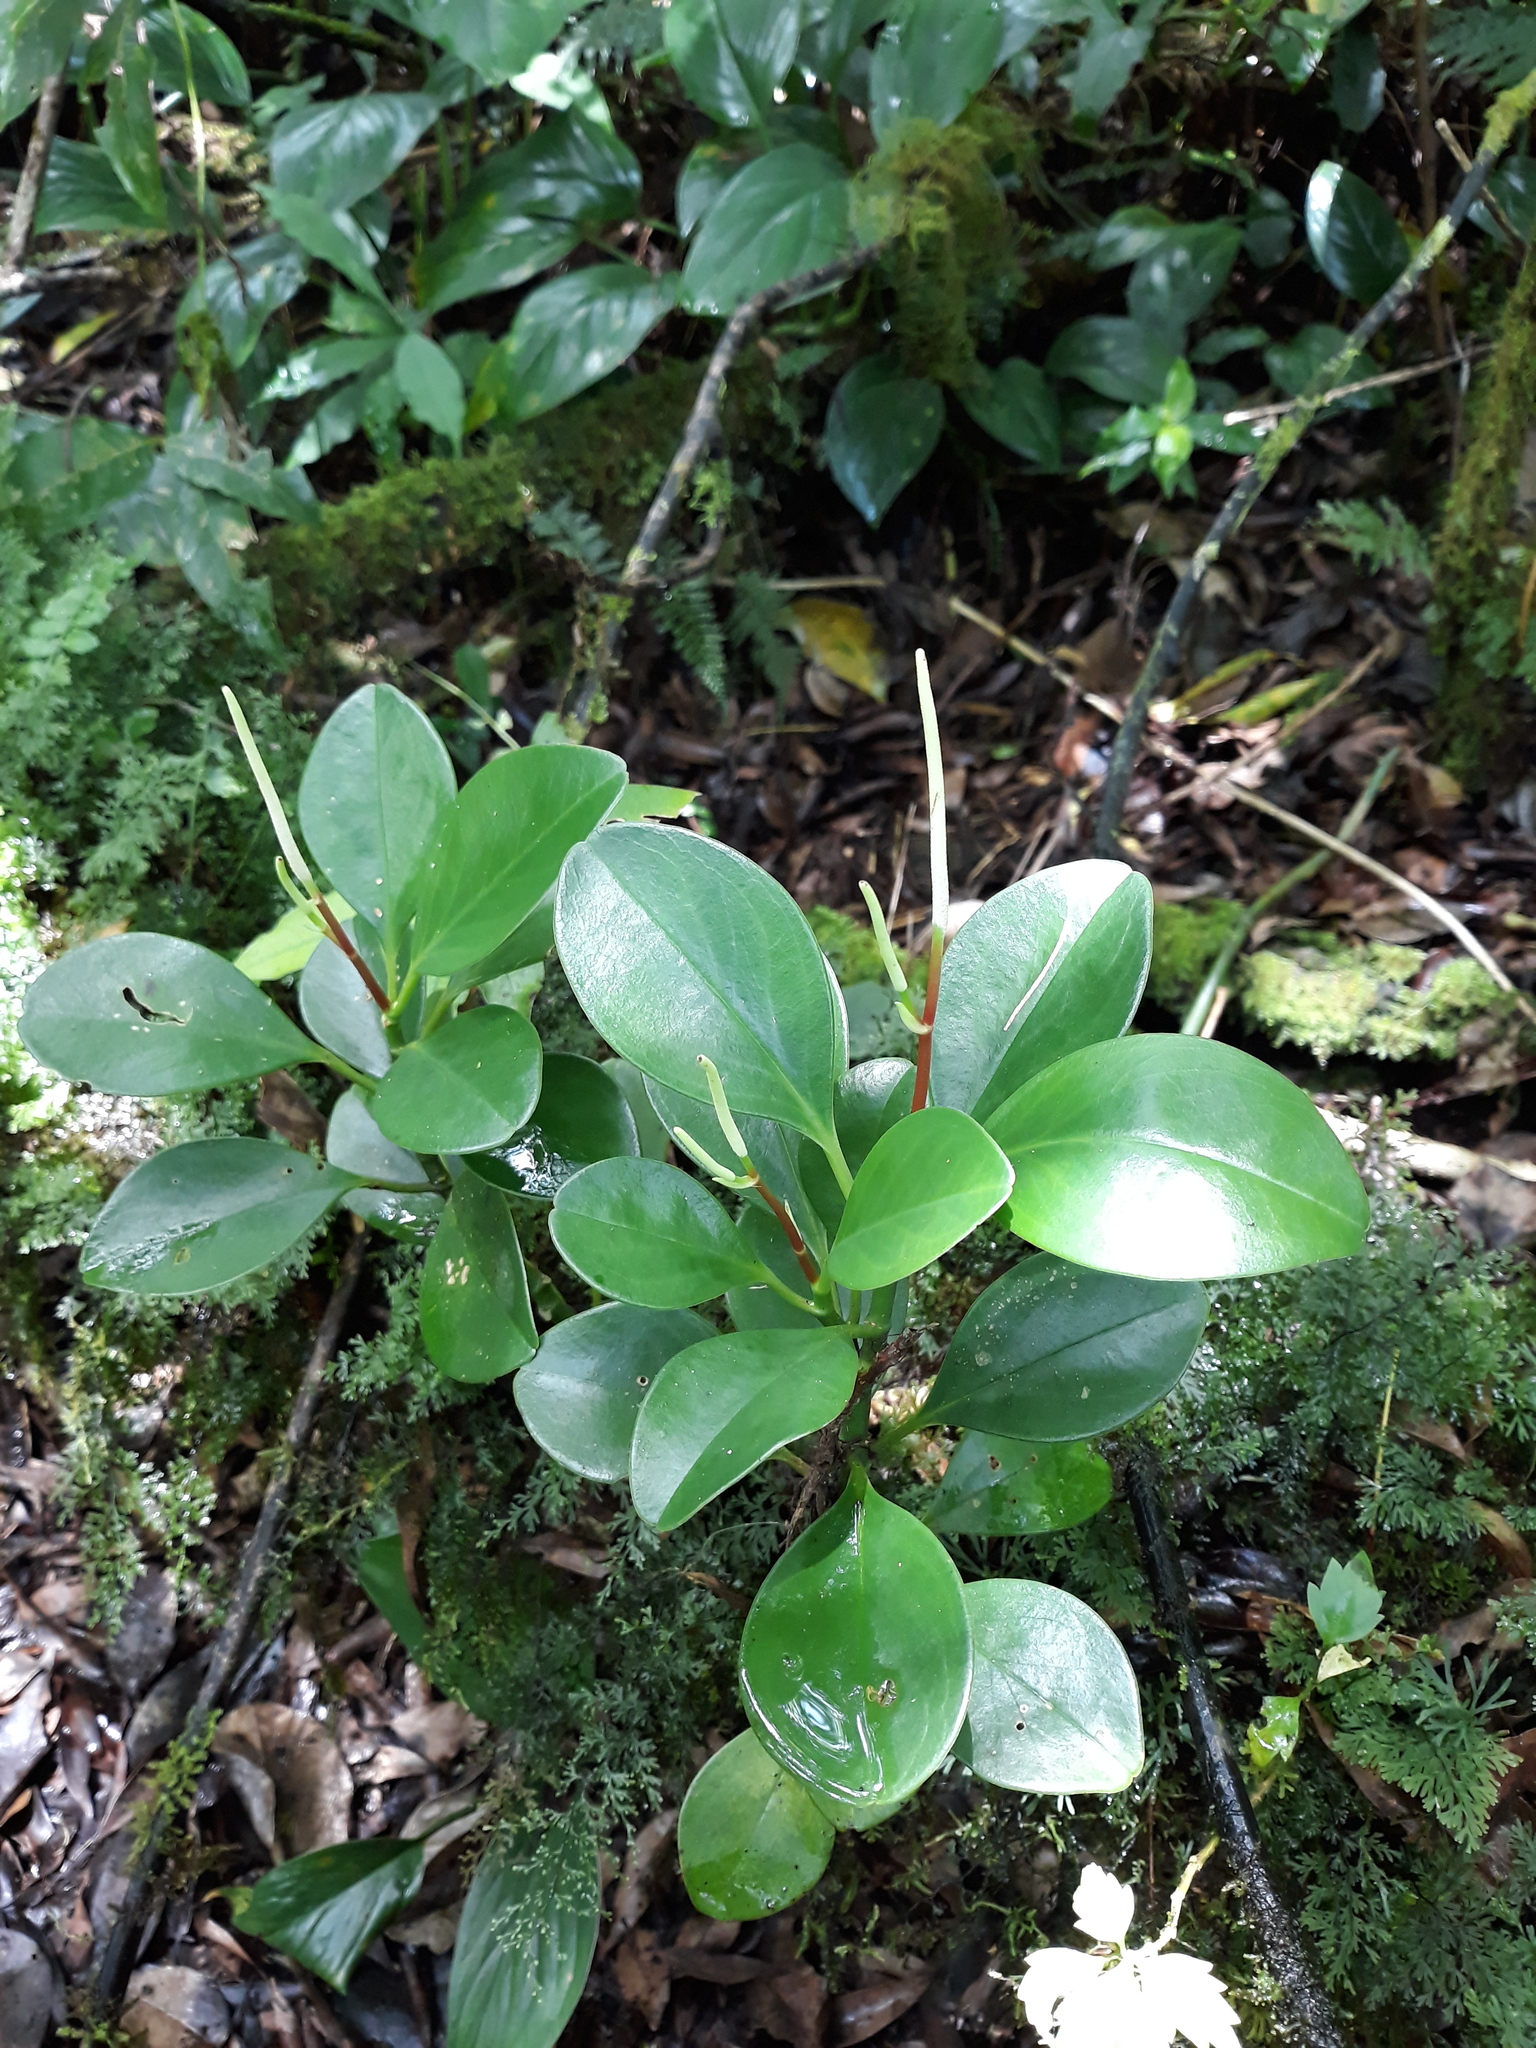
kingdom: Plantae
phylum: Tracheophyta
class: Magnoliopsida
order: Piperales
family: Piperaceae
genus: Peperomia
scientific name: Peperomia obtusifolia
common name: Baby rubberplant
